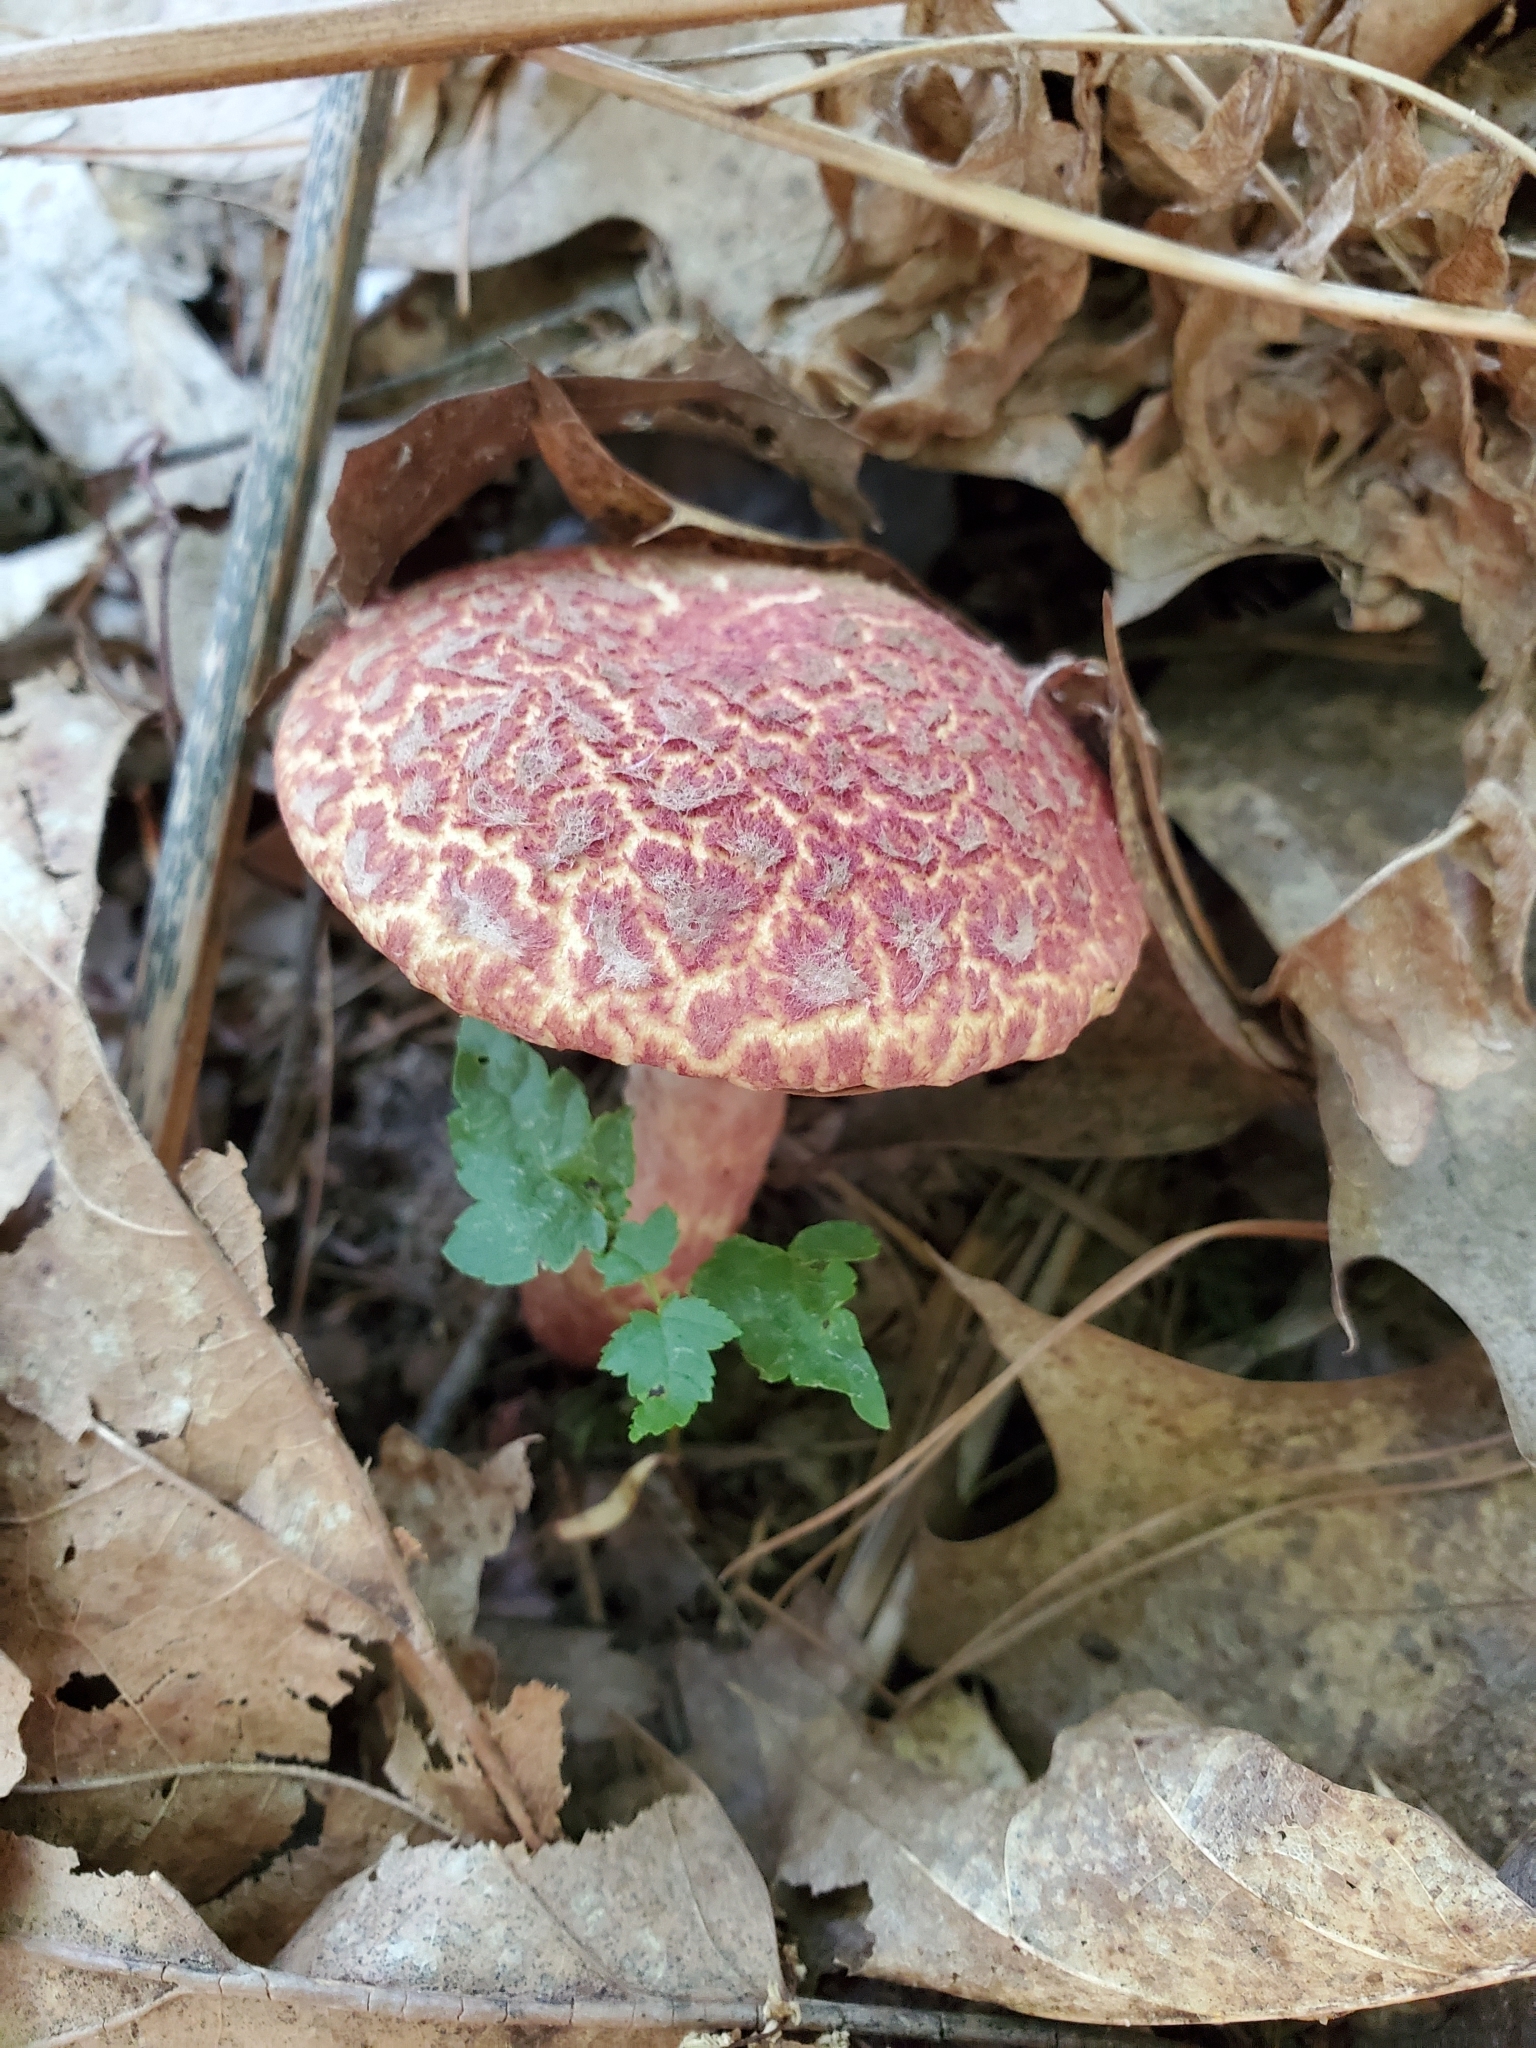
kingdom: Fungi
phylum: Basidiomycota
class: Agaricomycetes
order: Boletales
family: Suillaceae
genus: Suillus
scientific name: Suillus spraguei
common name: Painted suillus
